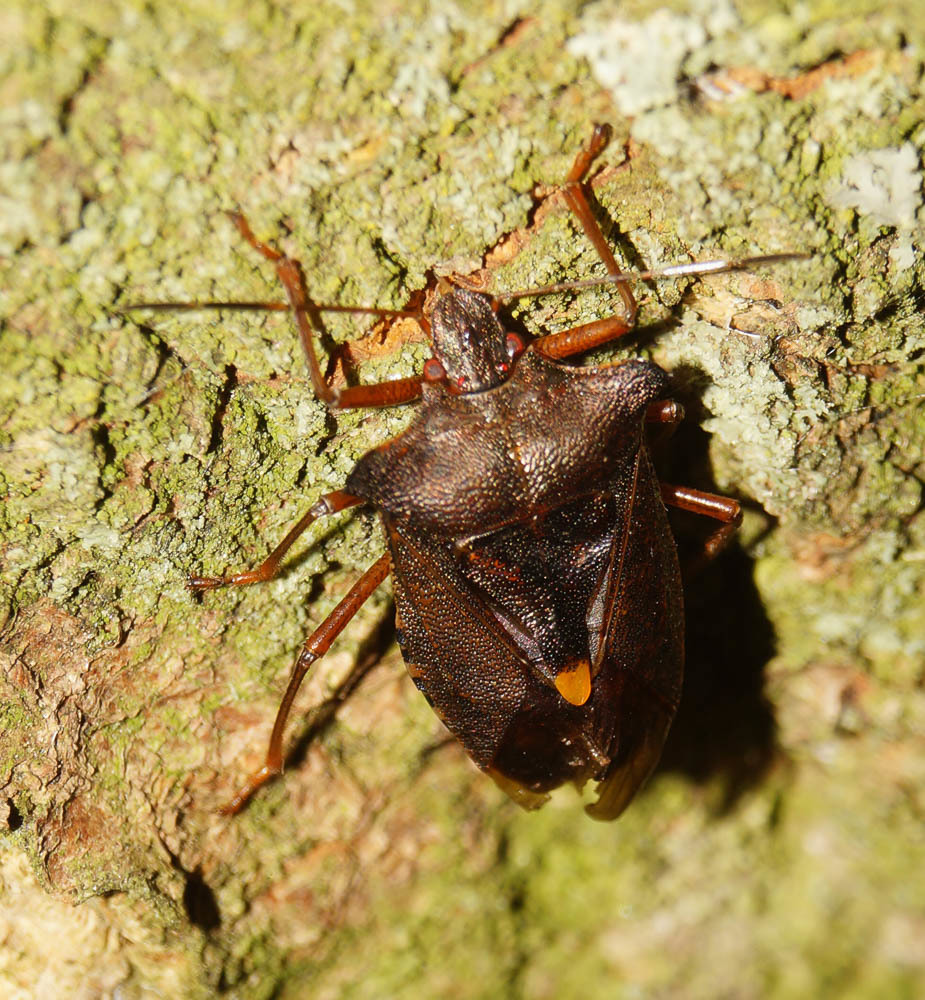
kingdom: Animalia
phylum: Arthropoda
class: Insecta
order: Hemiptera
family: Pentatomidae
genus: Pentatoma
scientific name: Pentatoma rufipes
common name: Forest bug
